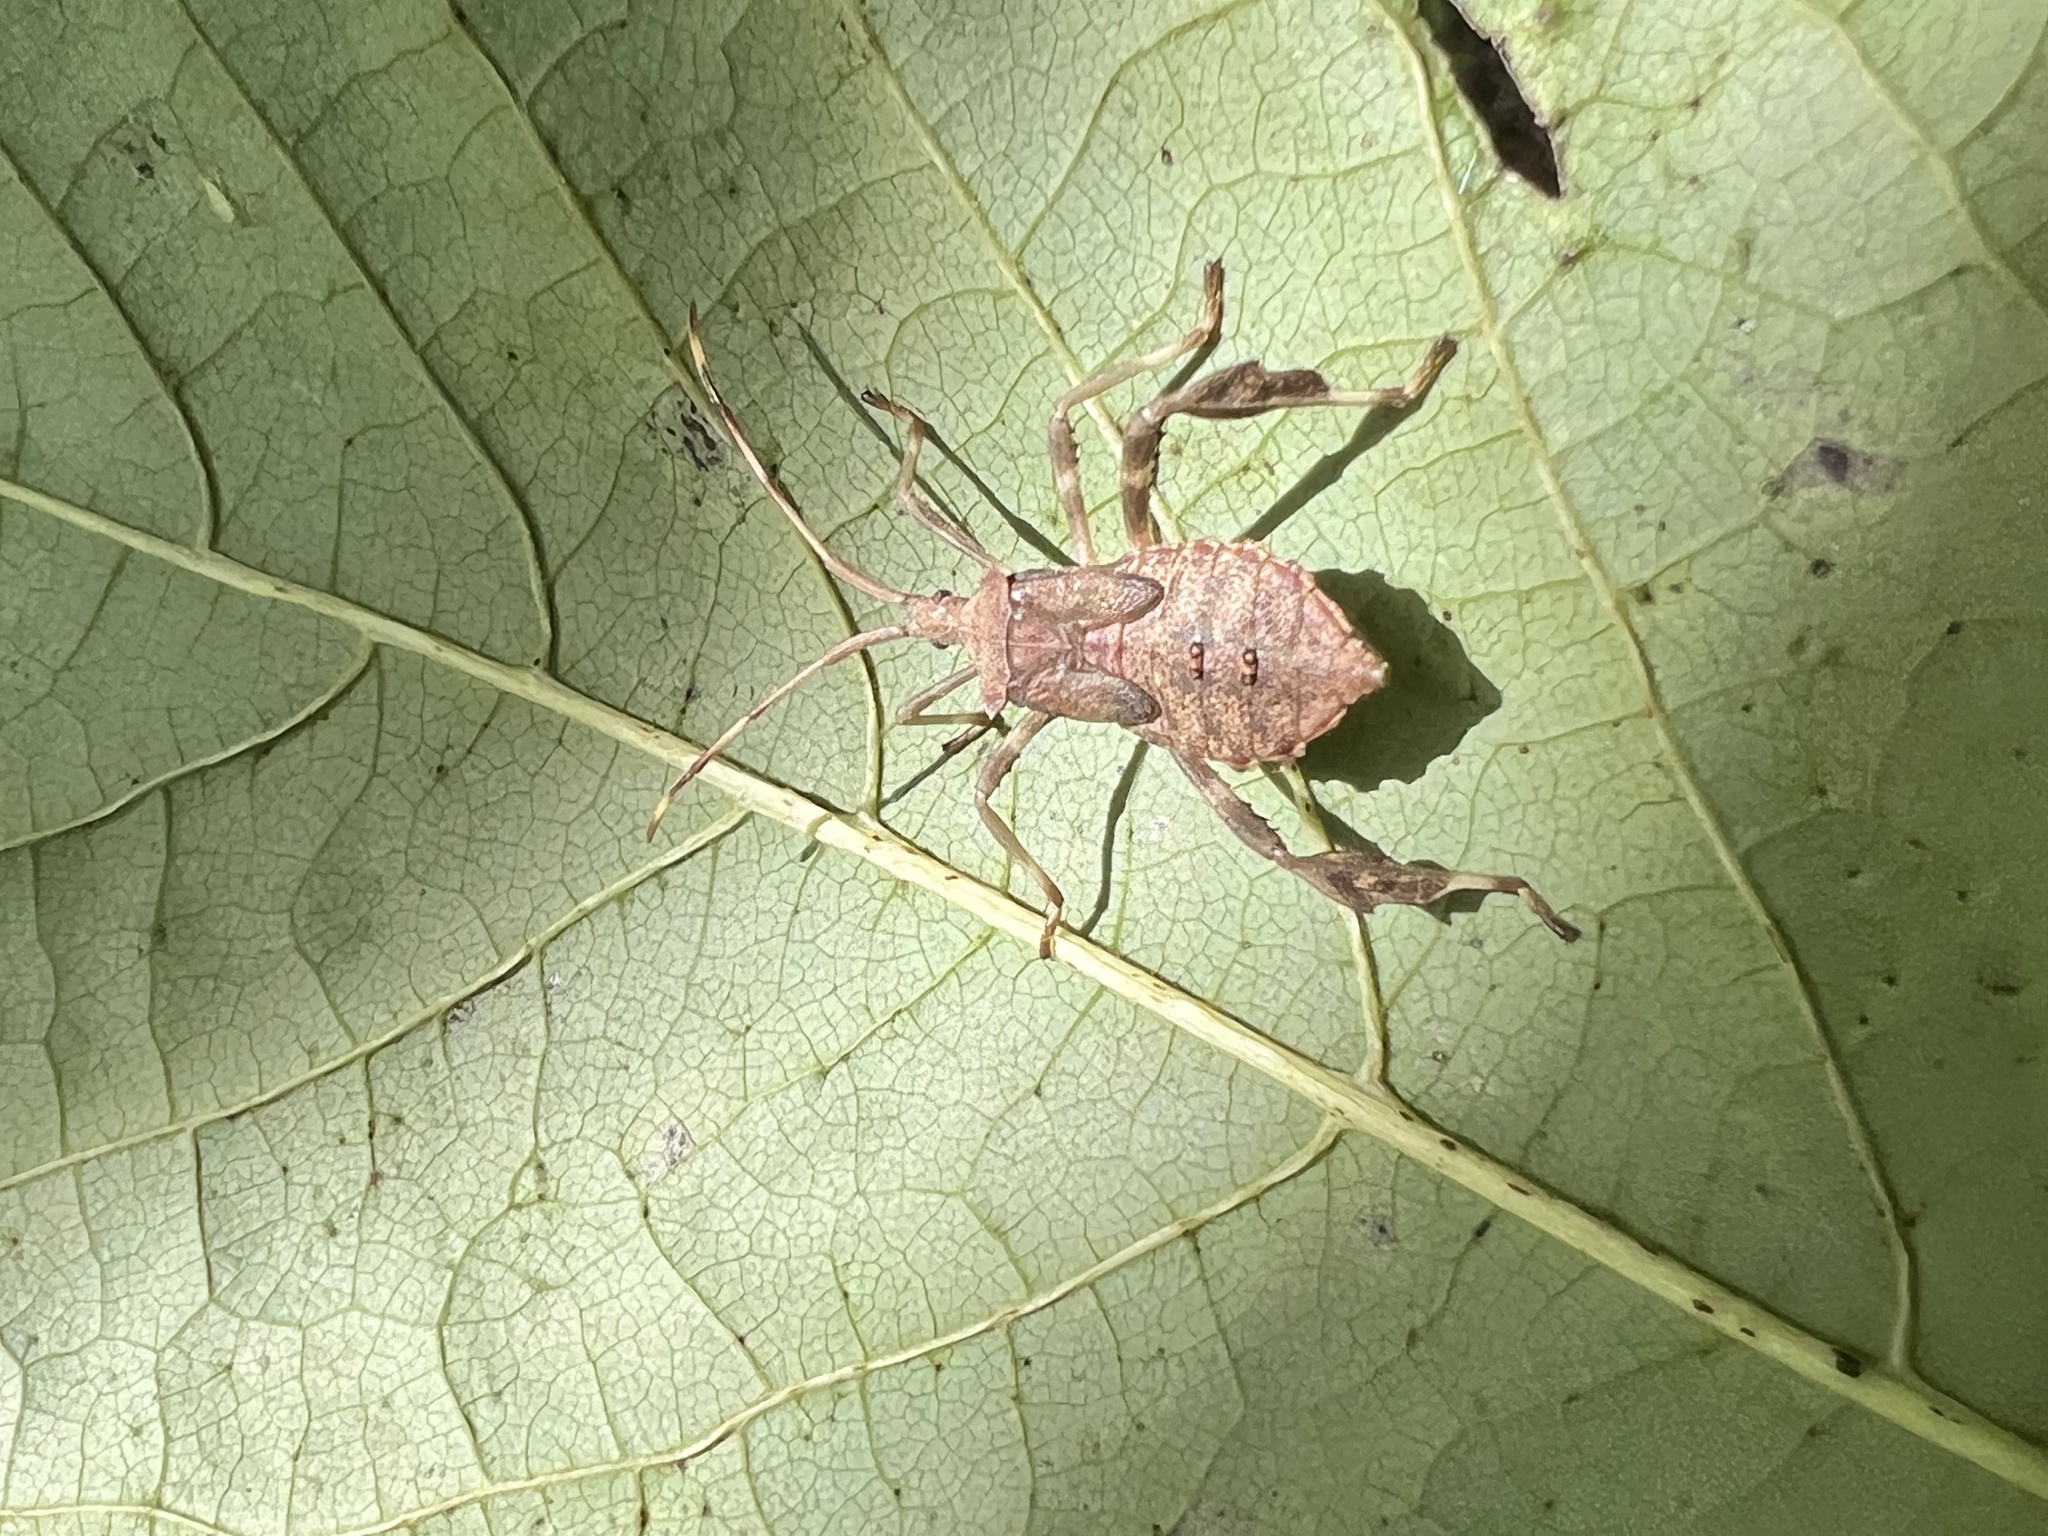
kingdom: Animalia
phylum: Arthropoda
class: Insecta
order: Hemiptera
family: Coreidae
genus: Acanthocephala
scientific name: Acanthocephala terminalis
